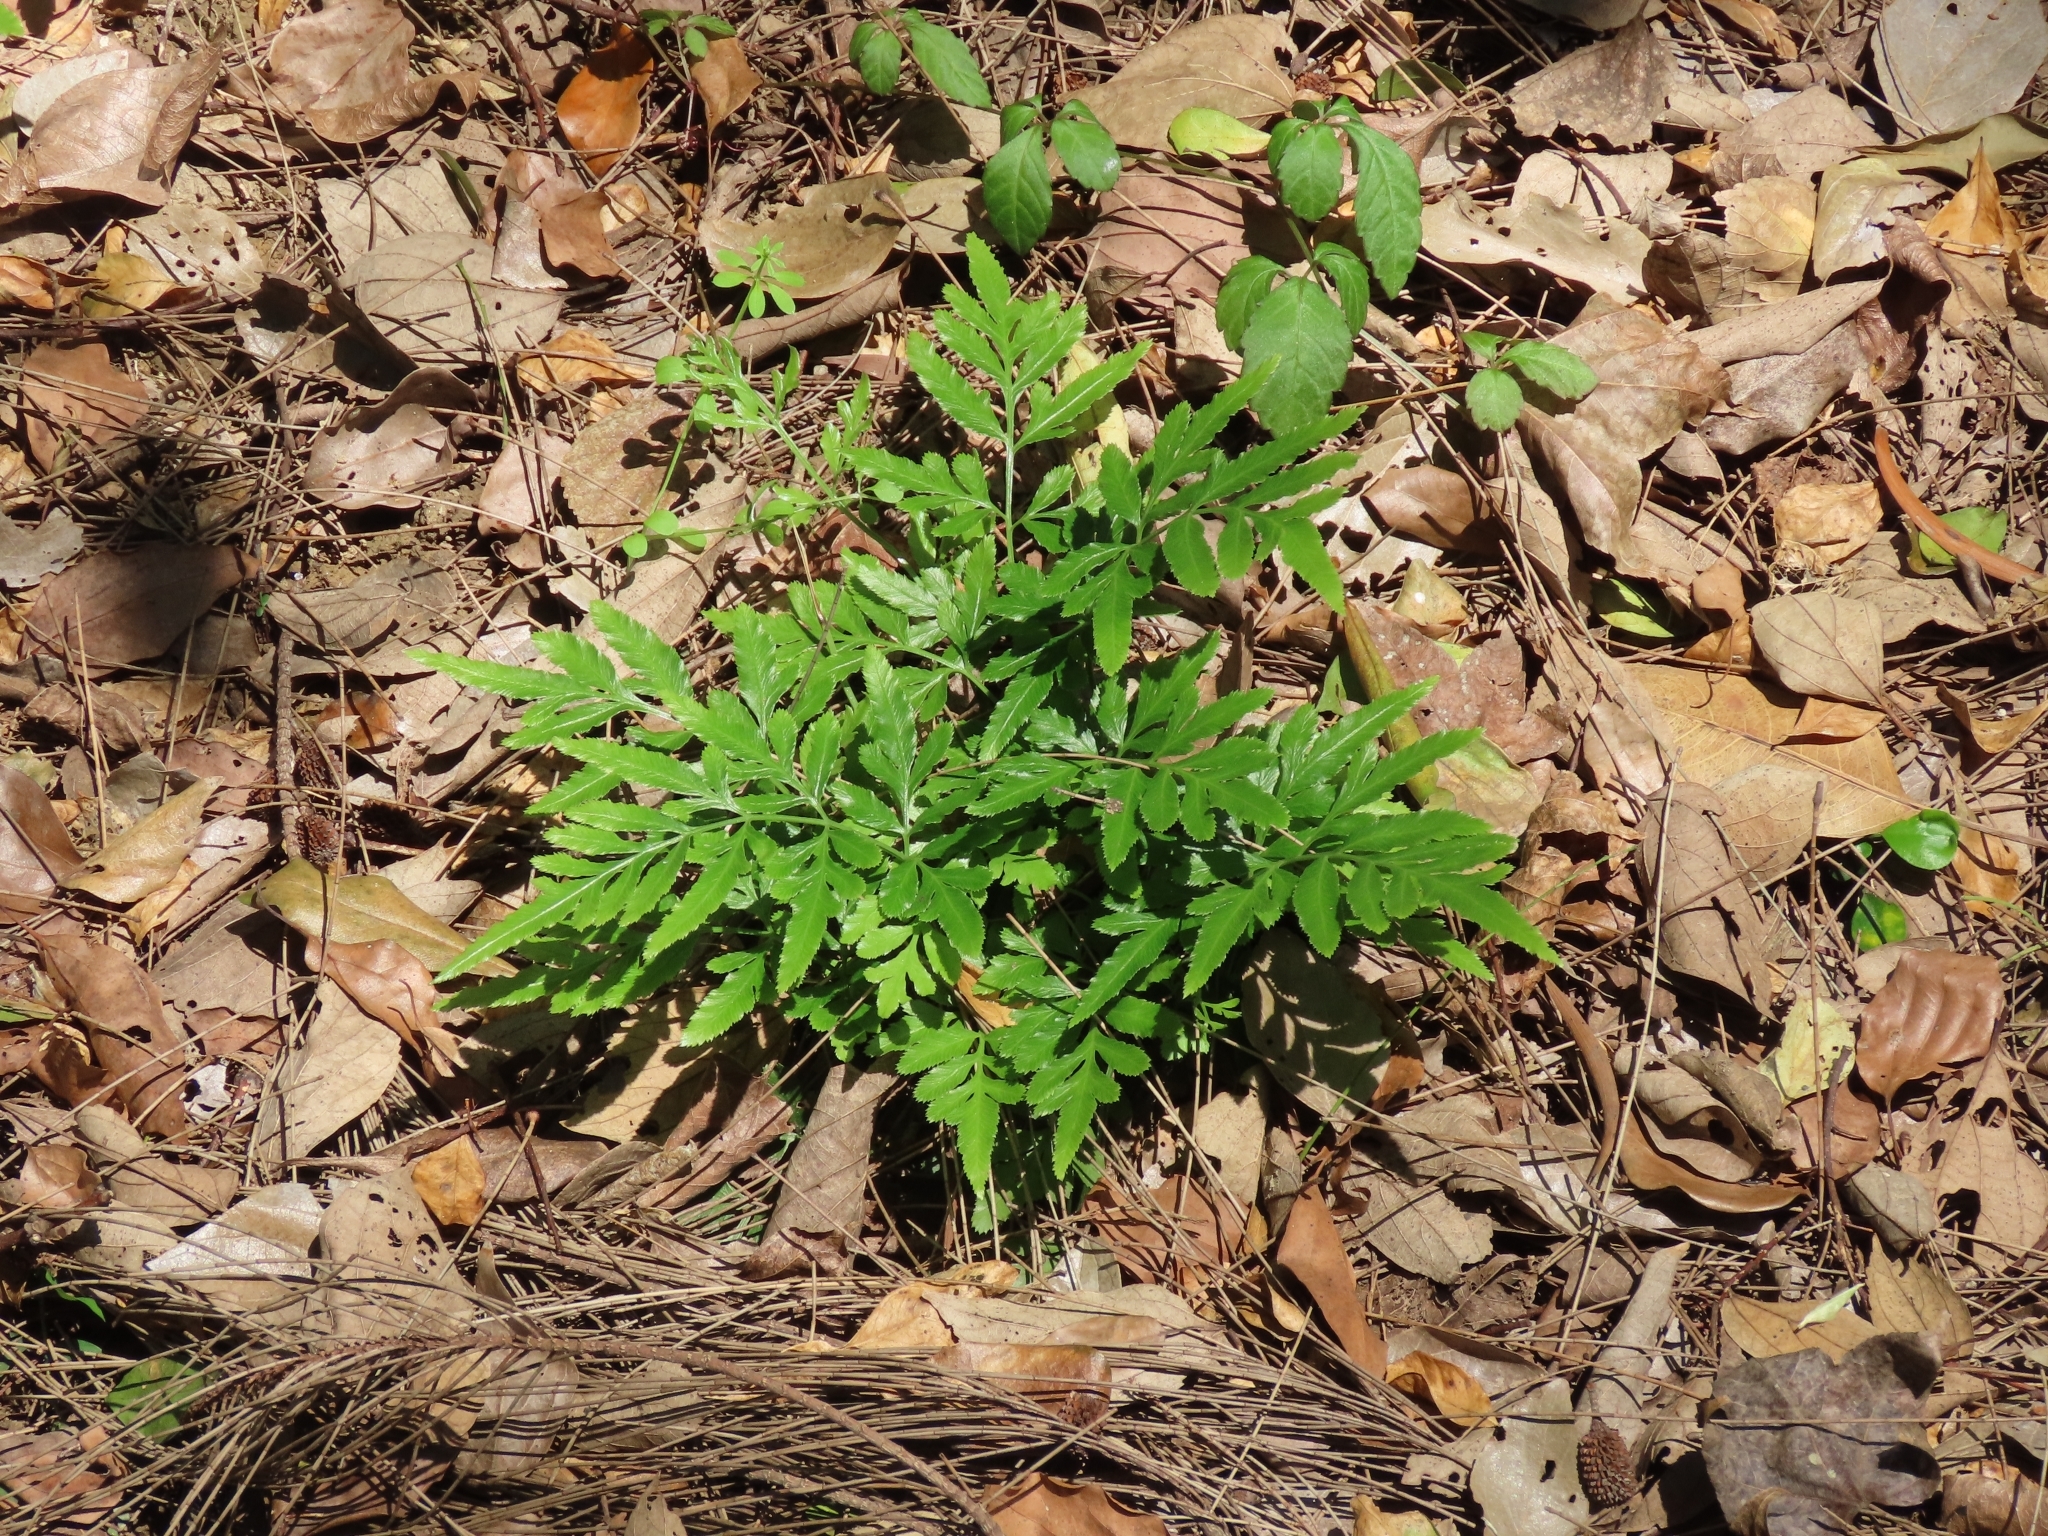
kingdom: Plantae
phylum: Tracheophyta
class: Polypodiopsida
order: Polypodiales
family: Pteridaceae
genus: Pteris
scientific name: Pteris ensiformis
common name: Sword brake
